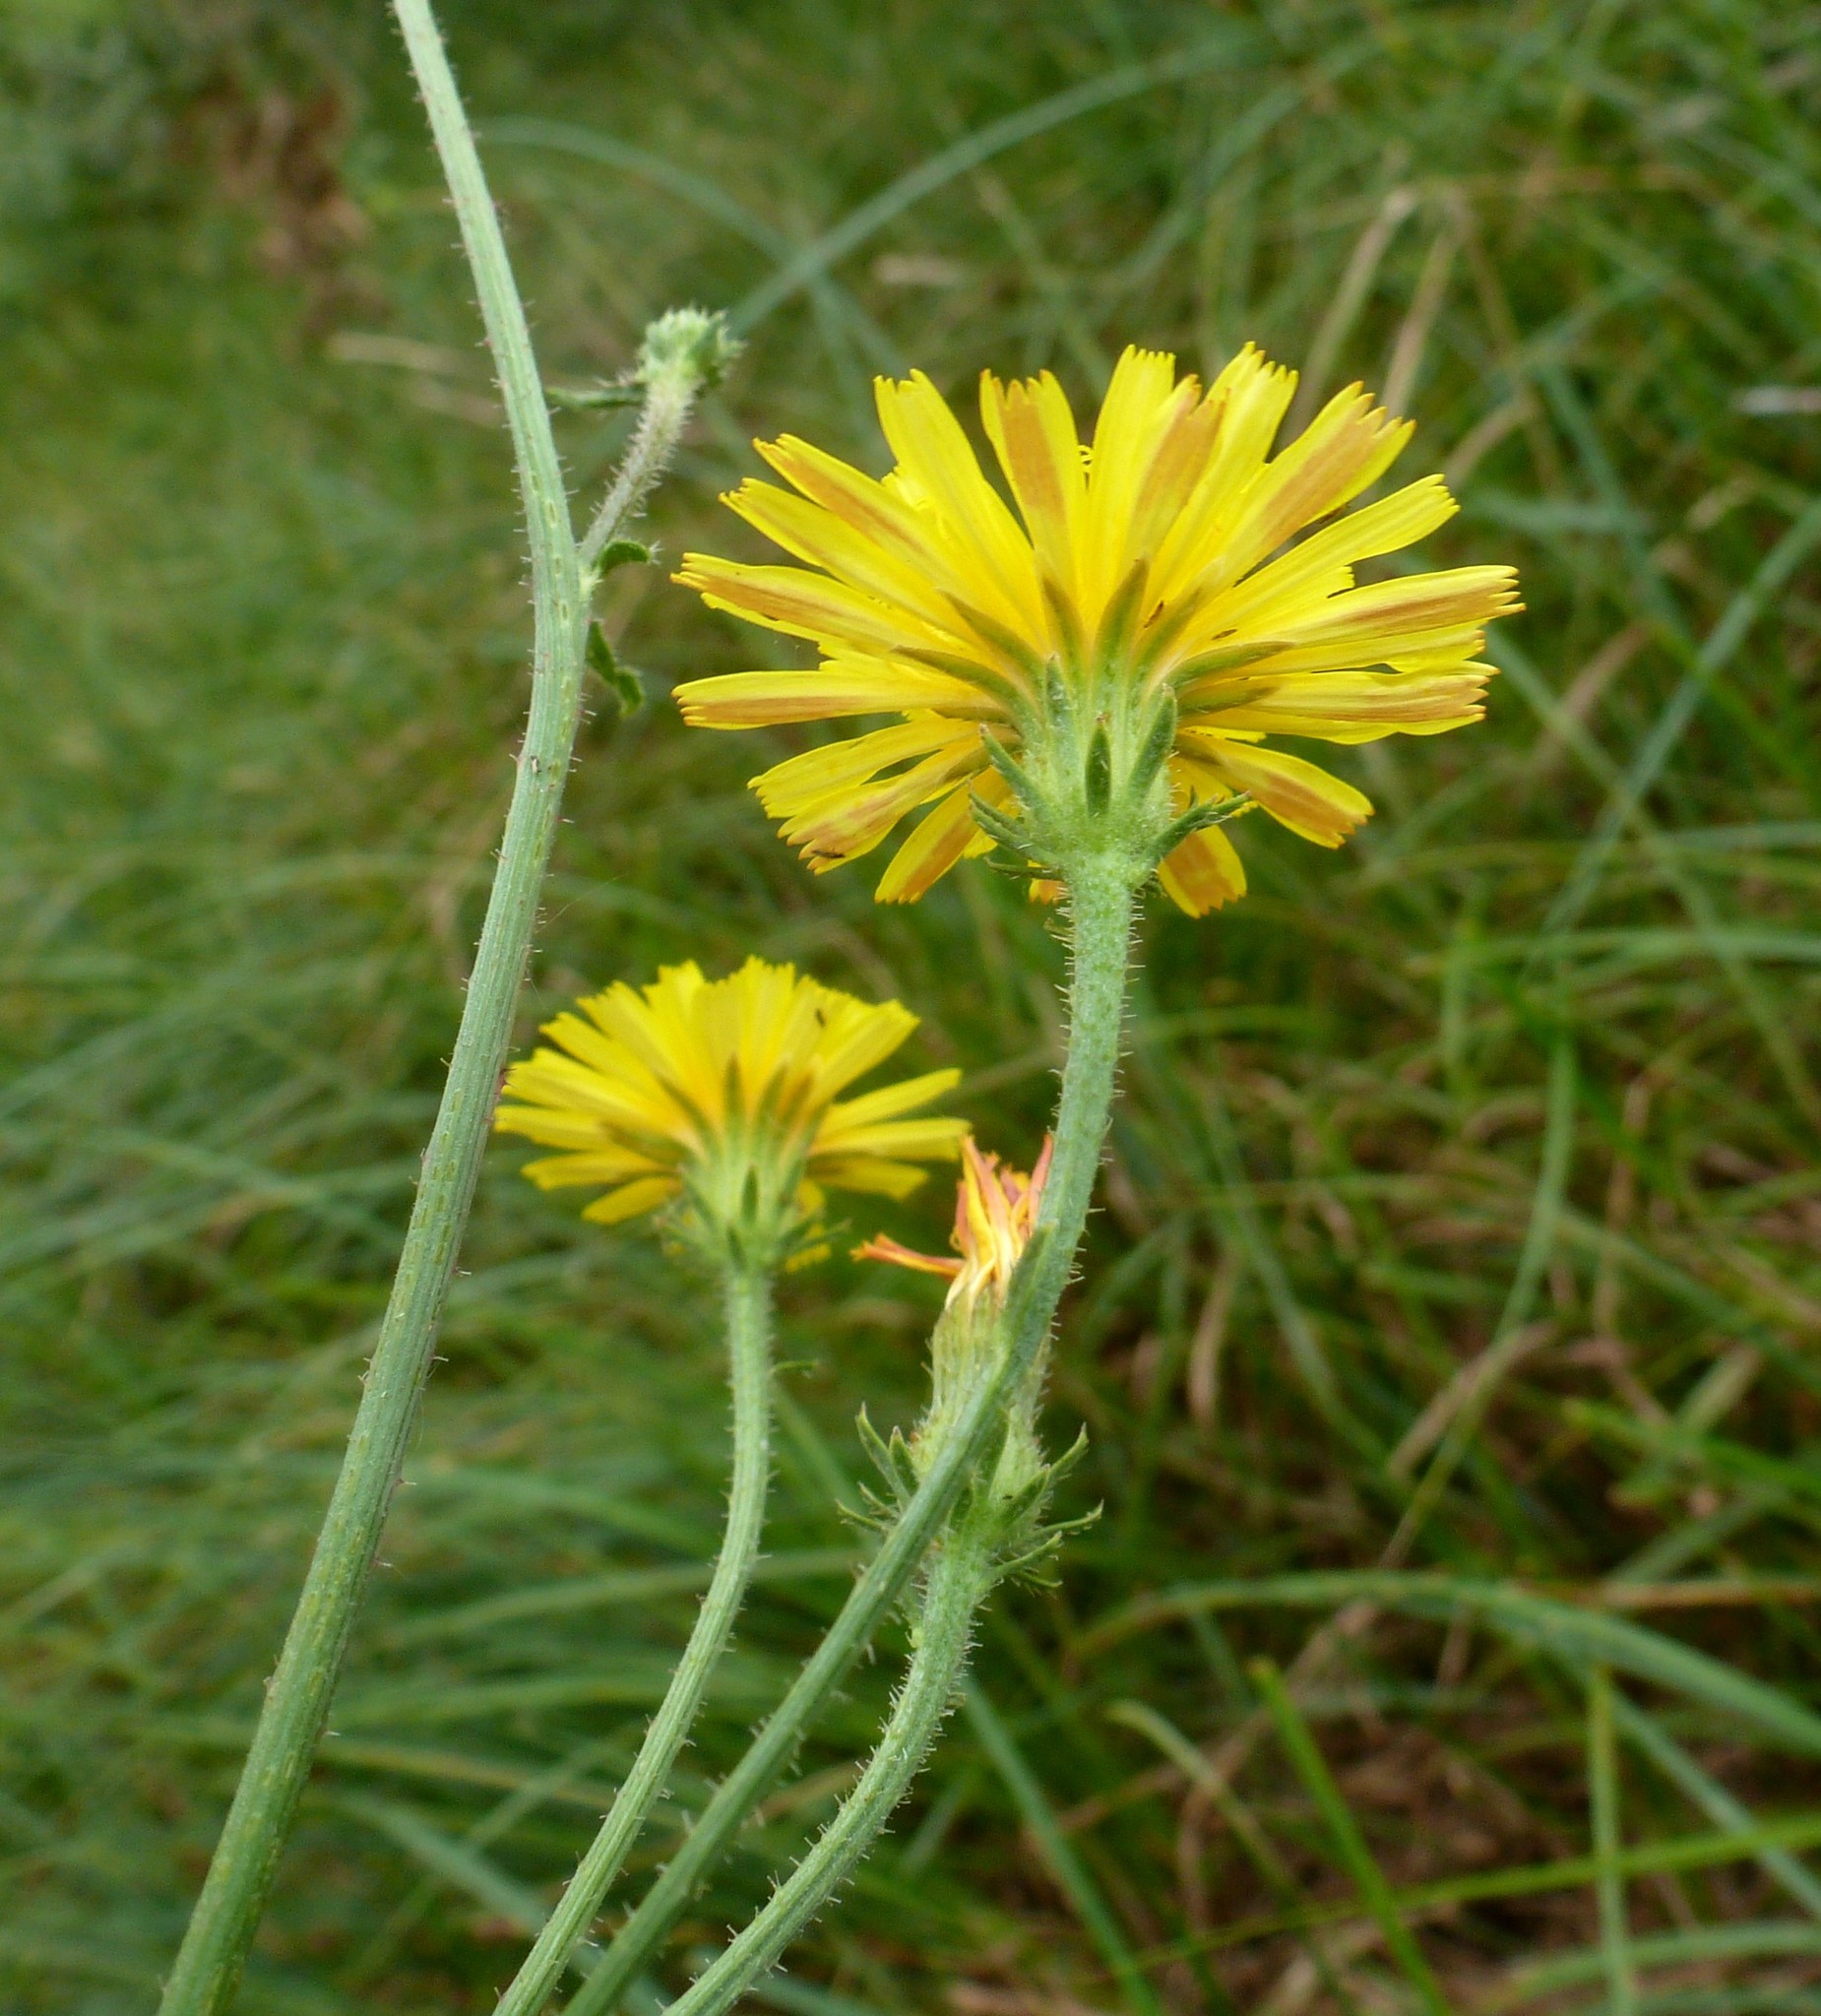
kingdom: Plantae
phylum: Tracheophyta
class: Magnoliopsida
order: Asterales
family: Asteraceae
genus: Picris
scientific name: Picris hieracioides
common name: Hawkweed oxtongue
